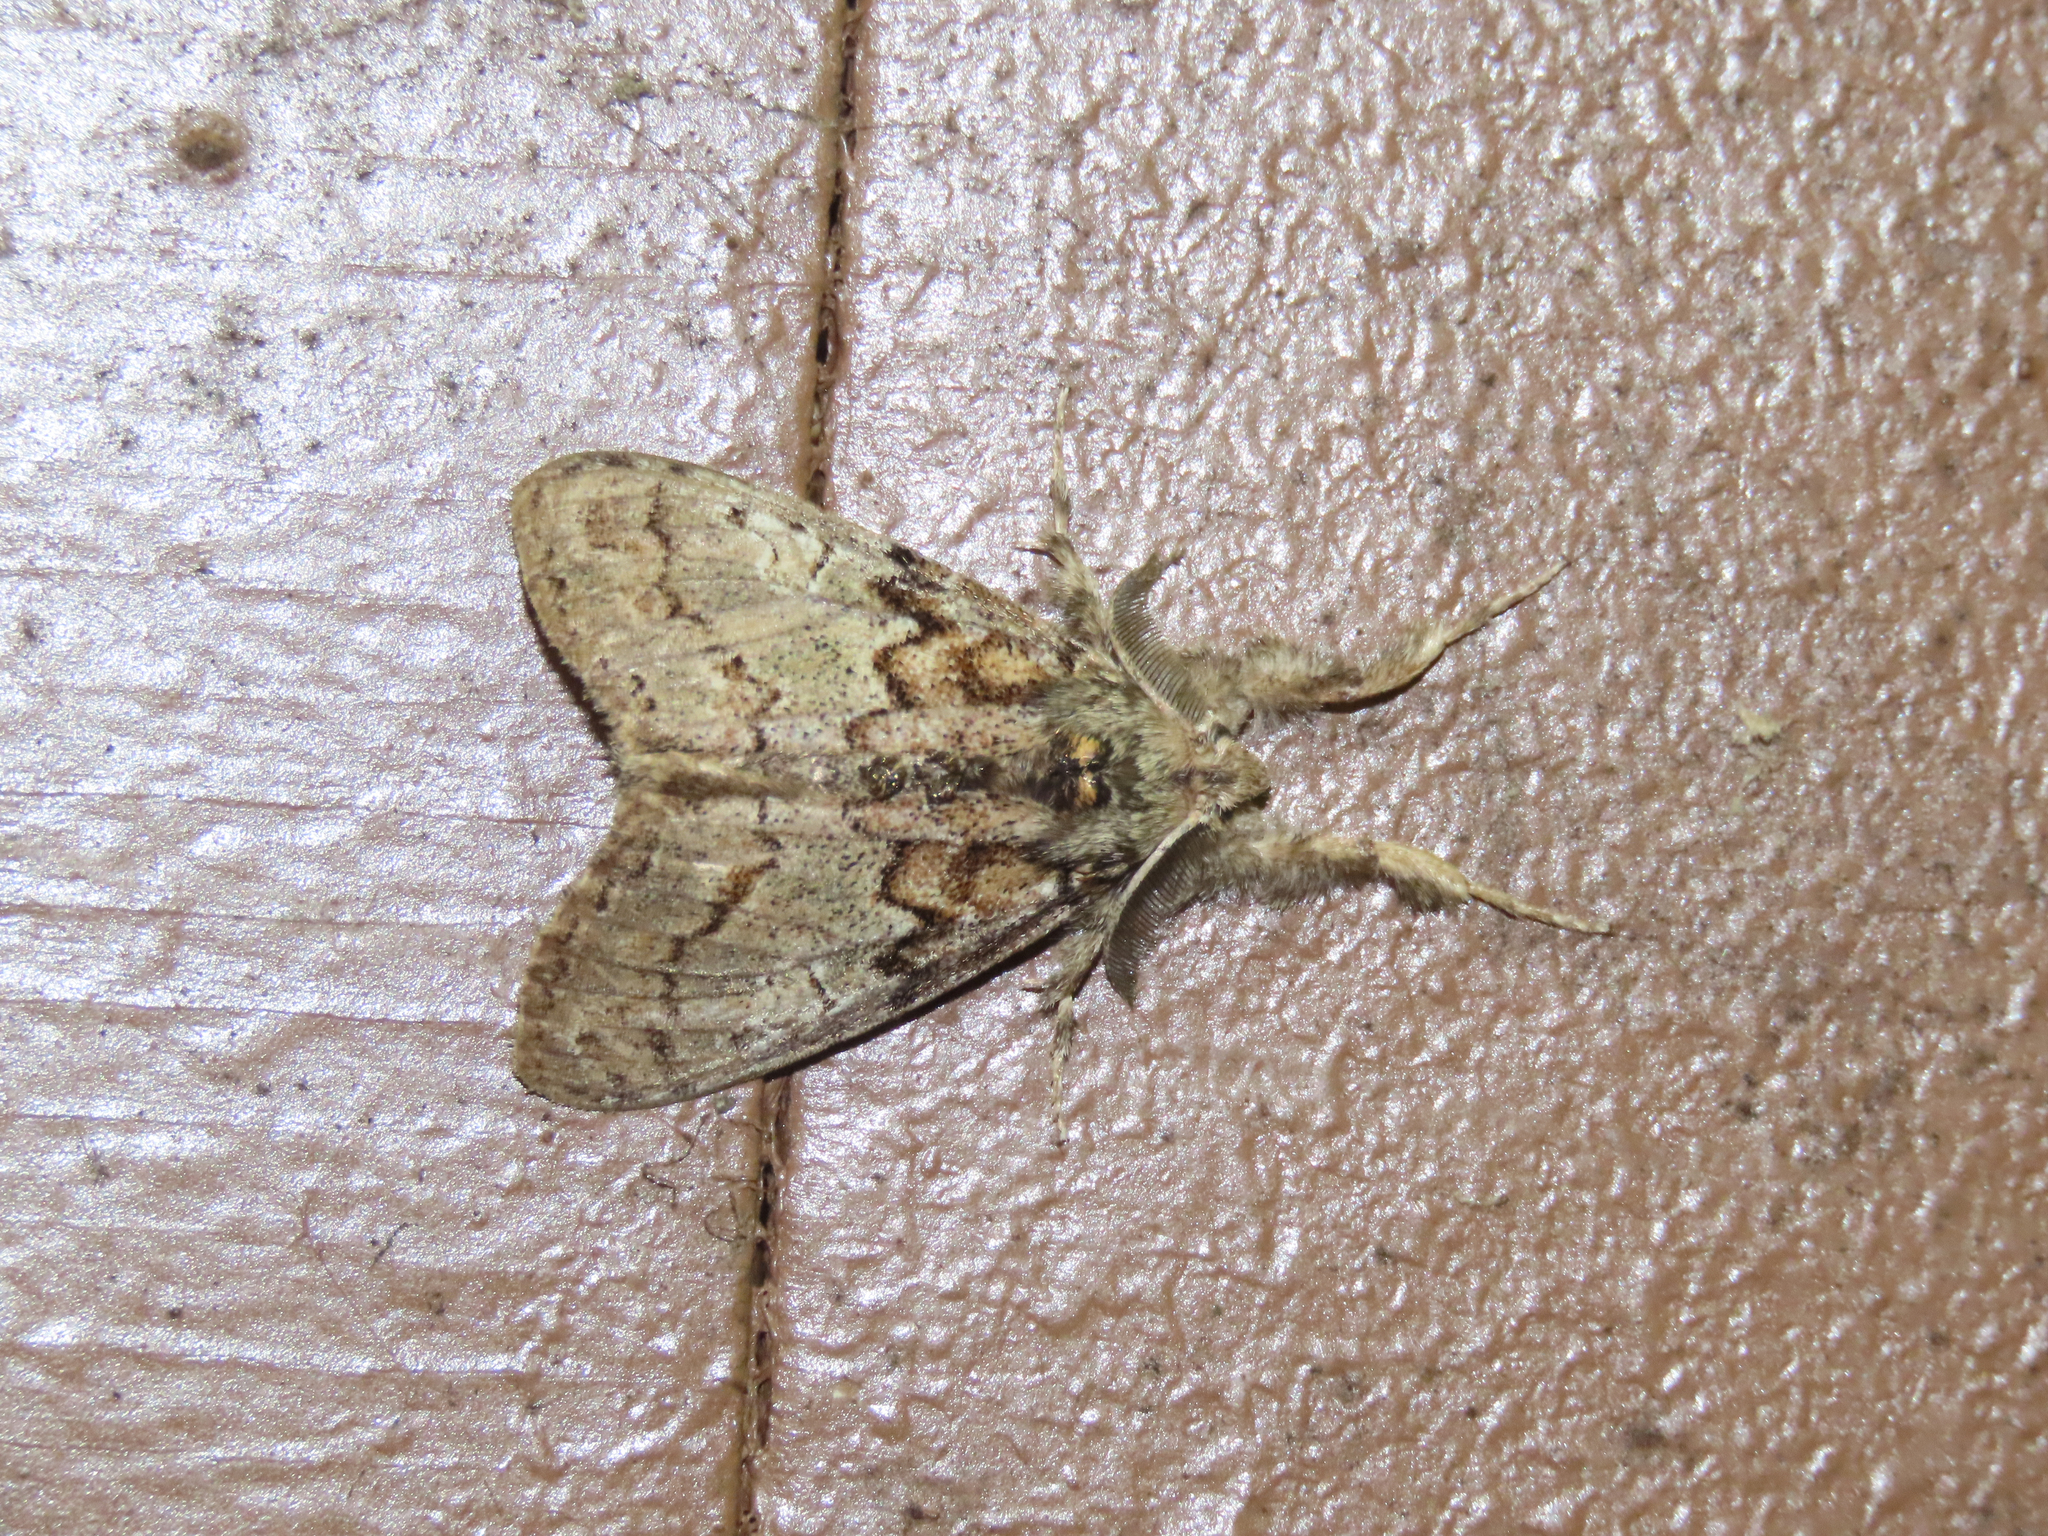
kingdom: Animalia
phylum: Arthropoda
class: Insecta
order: Lepidoptera
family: Erebidae
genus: Dasychira
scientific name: Dasychira obliquata
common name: Streaked tussock moth
